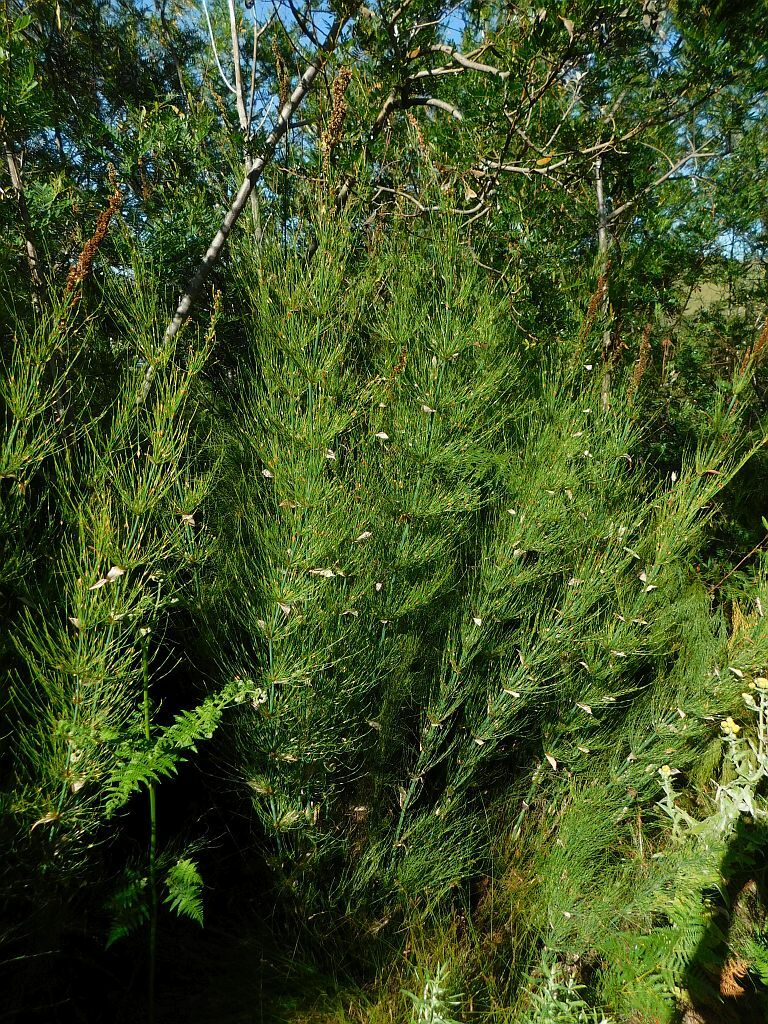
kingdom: Plantae
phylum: Tracheophyta
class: Liliopsida
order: Poales
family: Restionaceae
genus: Elegia
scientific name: Elegia capensis
